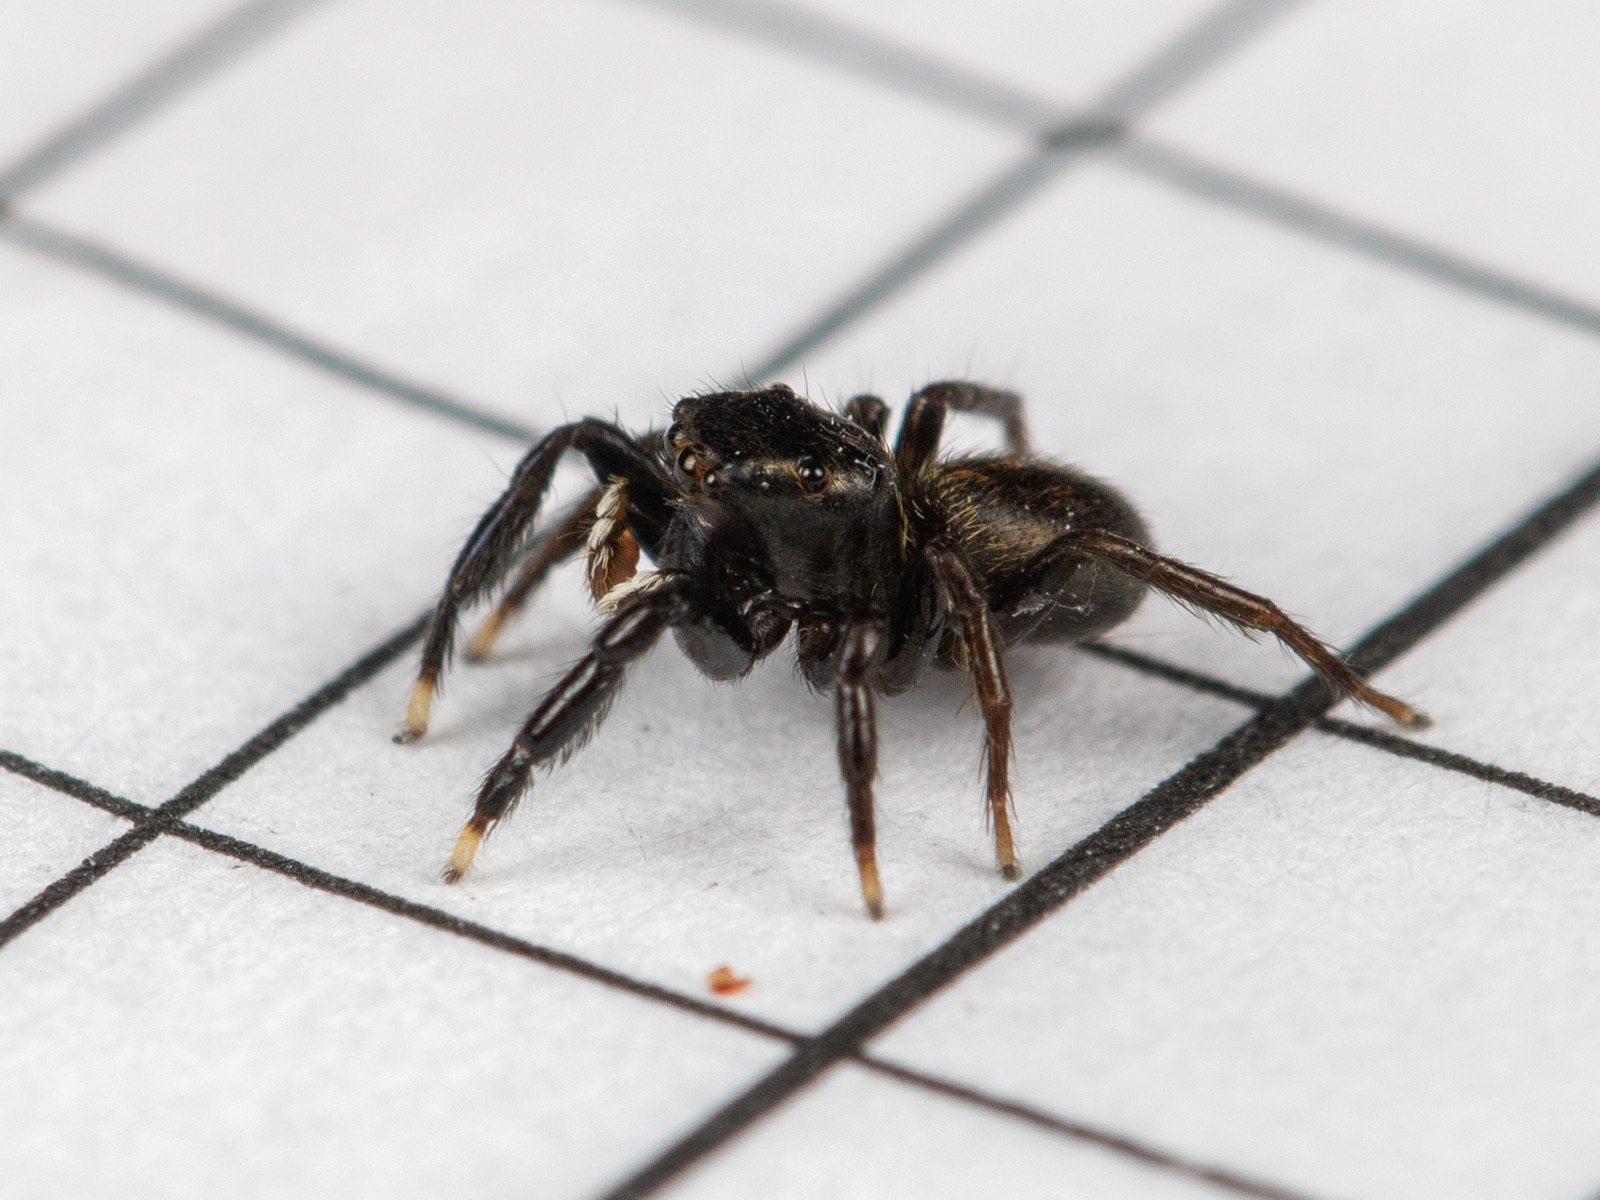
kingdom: Animalia
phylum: Arthropoda
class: Arachnida
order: Araneae
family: Salticidae
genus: Euophrys
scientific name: Euophrys frontalis
